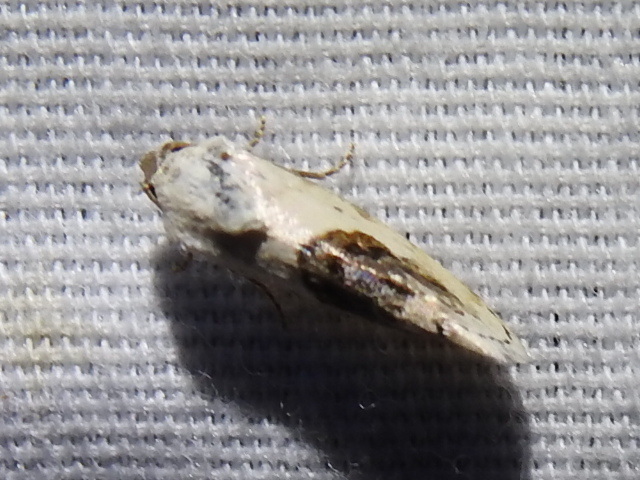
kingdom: Animalia
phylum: Arthropoda
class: Insecta
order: Lepidoptera
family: Noctuidae
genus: Acontia
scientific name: Acontia erastrioides
